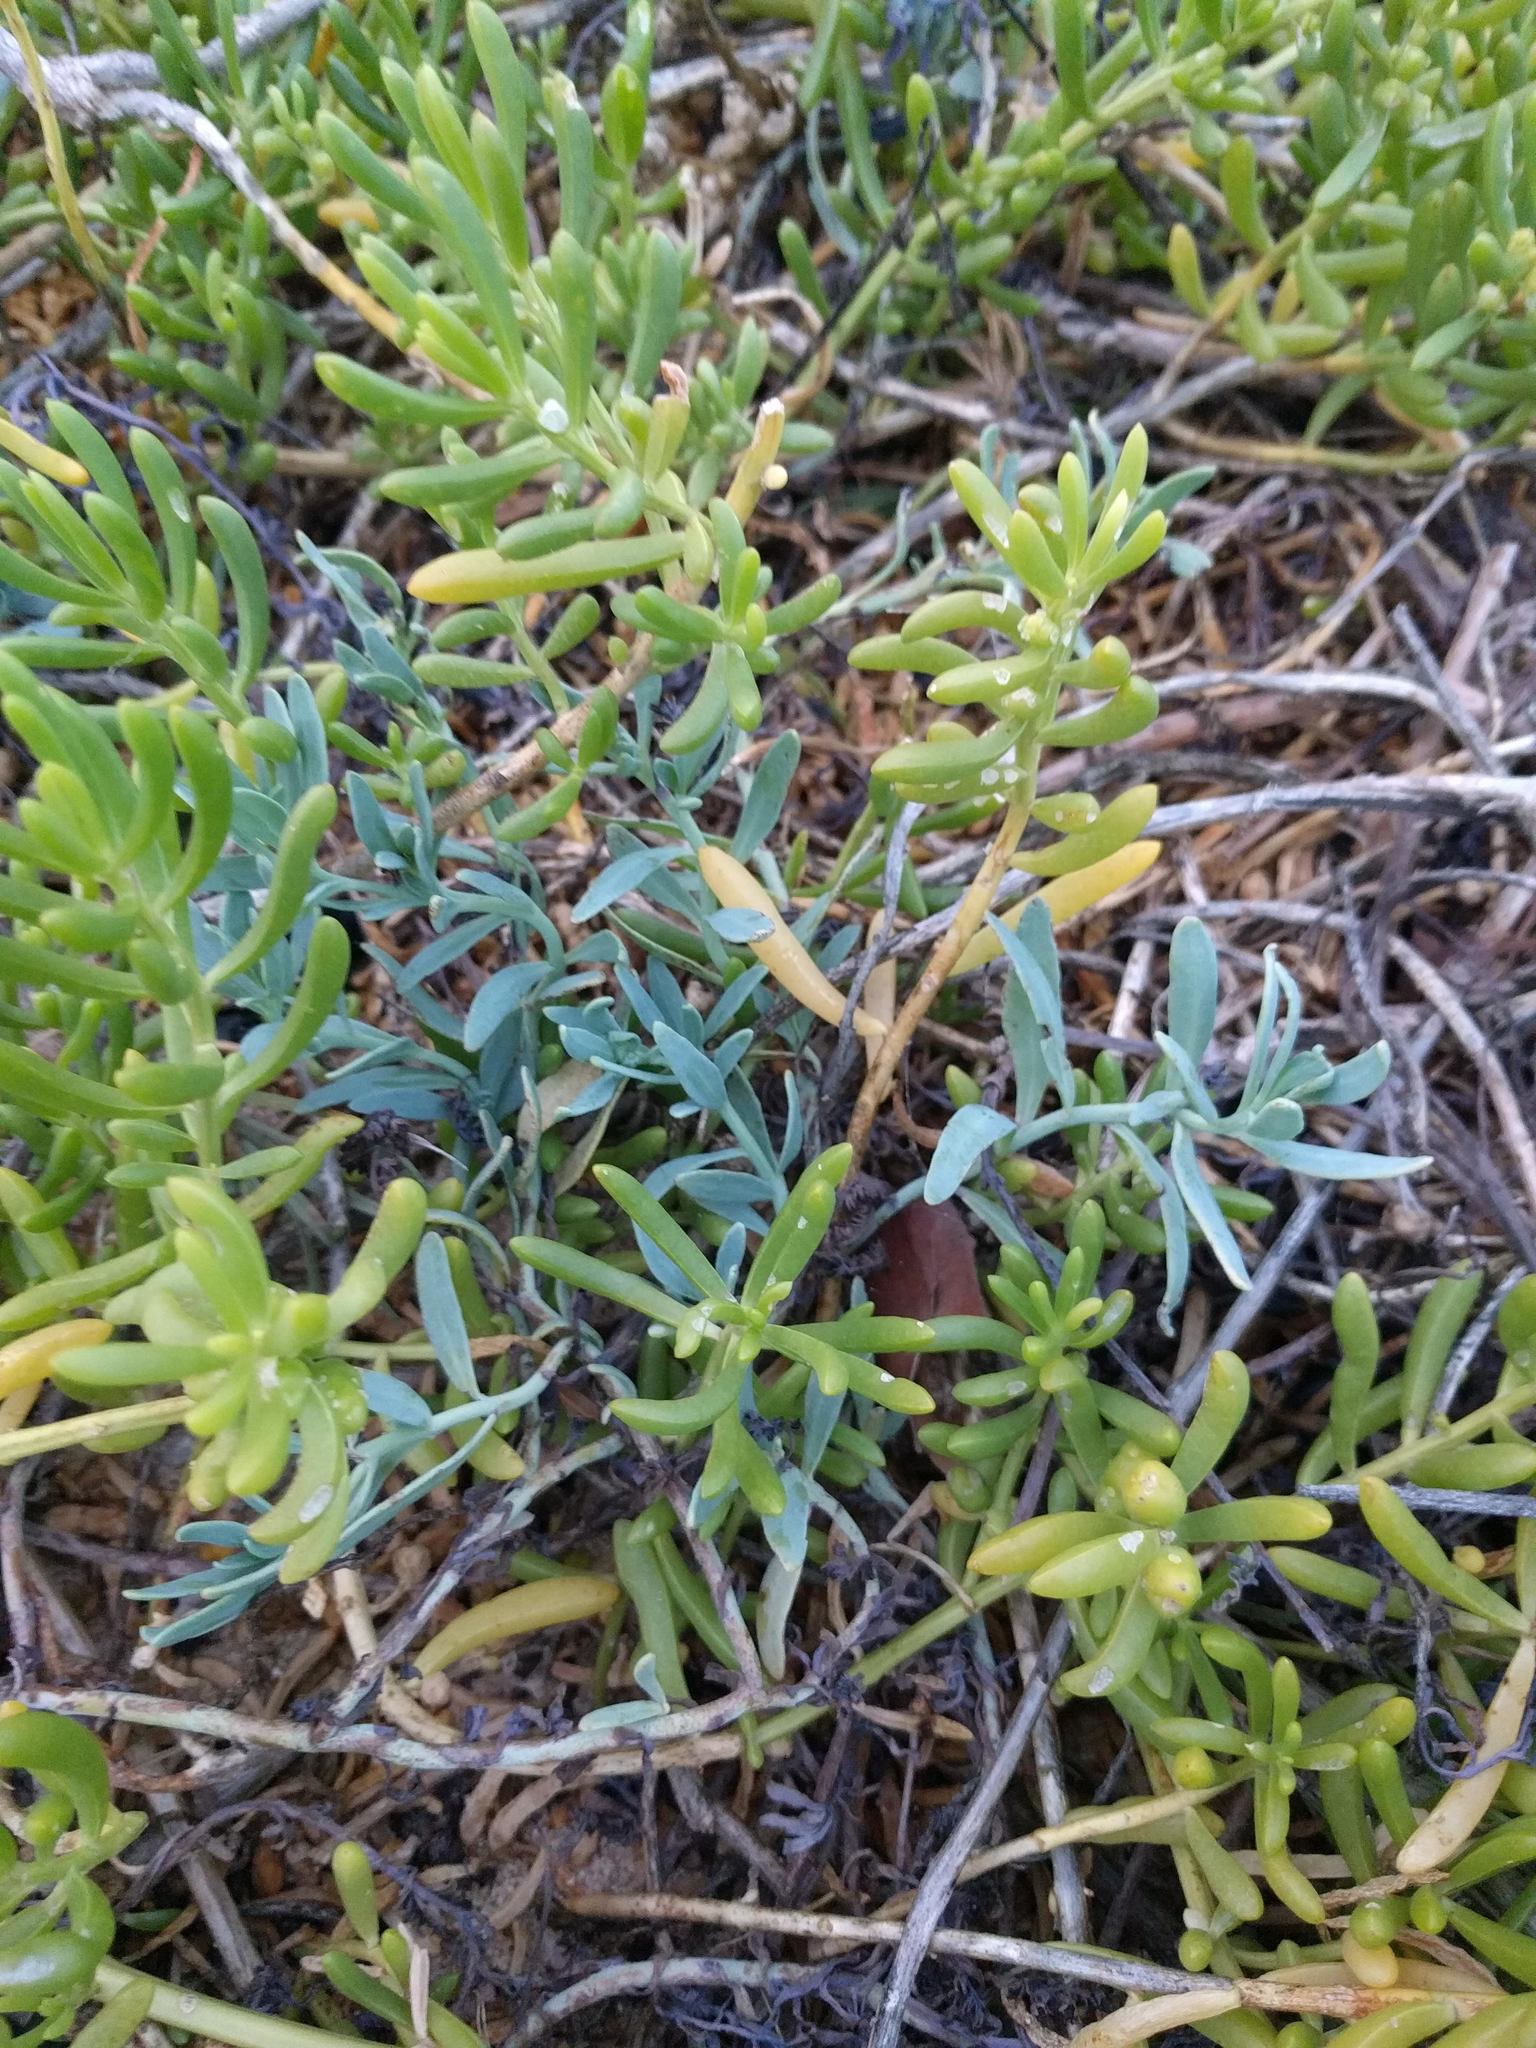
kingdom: Plantae
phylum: Tracheophyta
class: Magnoliopsida
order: Boraginales
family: Heliotropiaceae
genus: Heliotropium
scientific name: Heliotropium curassavicum
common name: Seaside heliotrope
